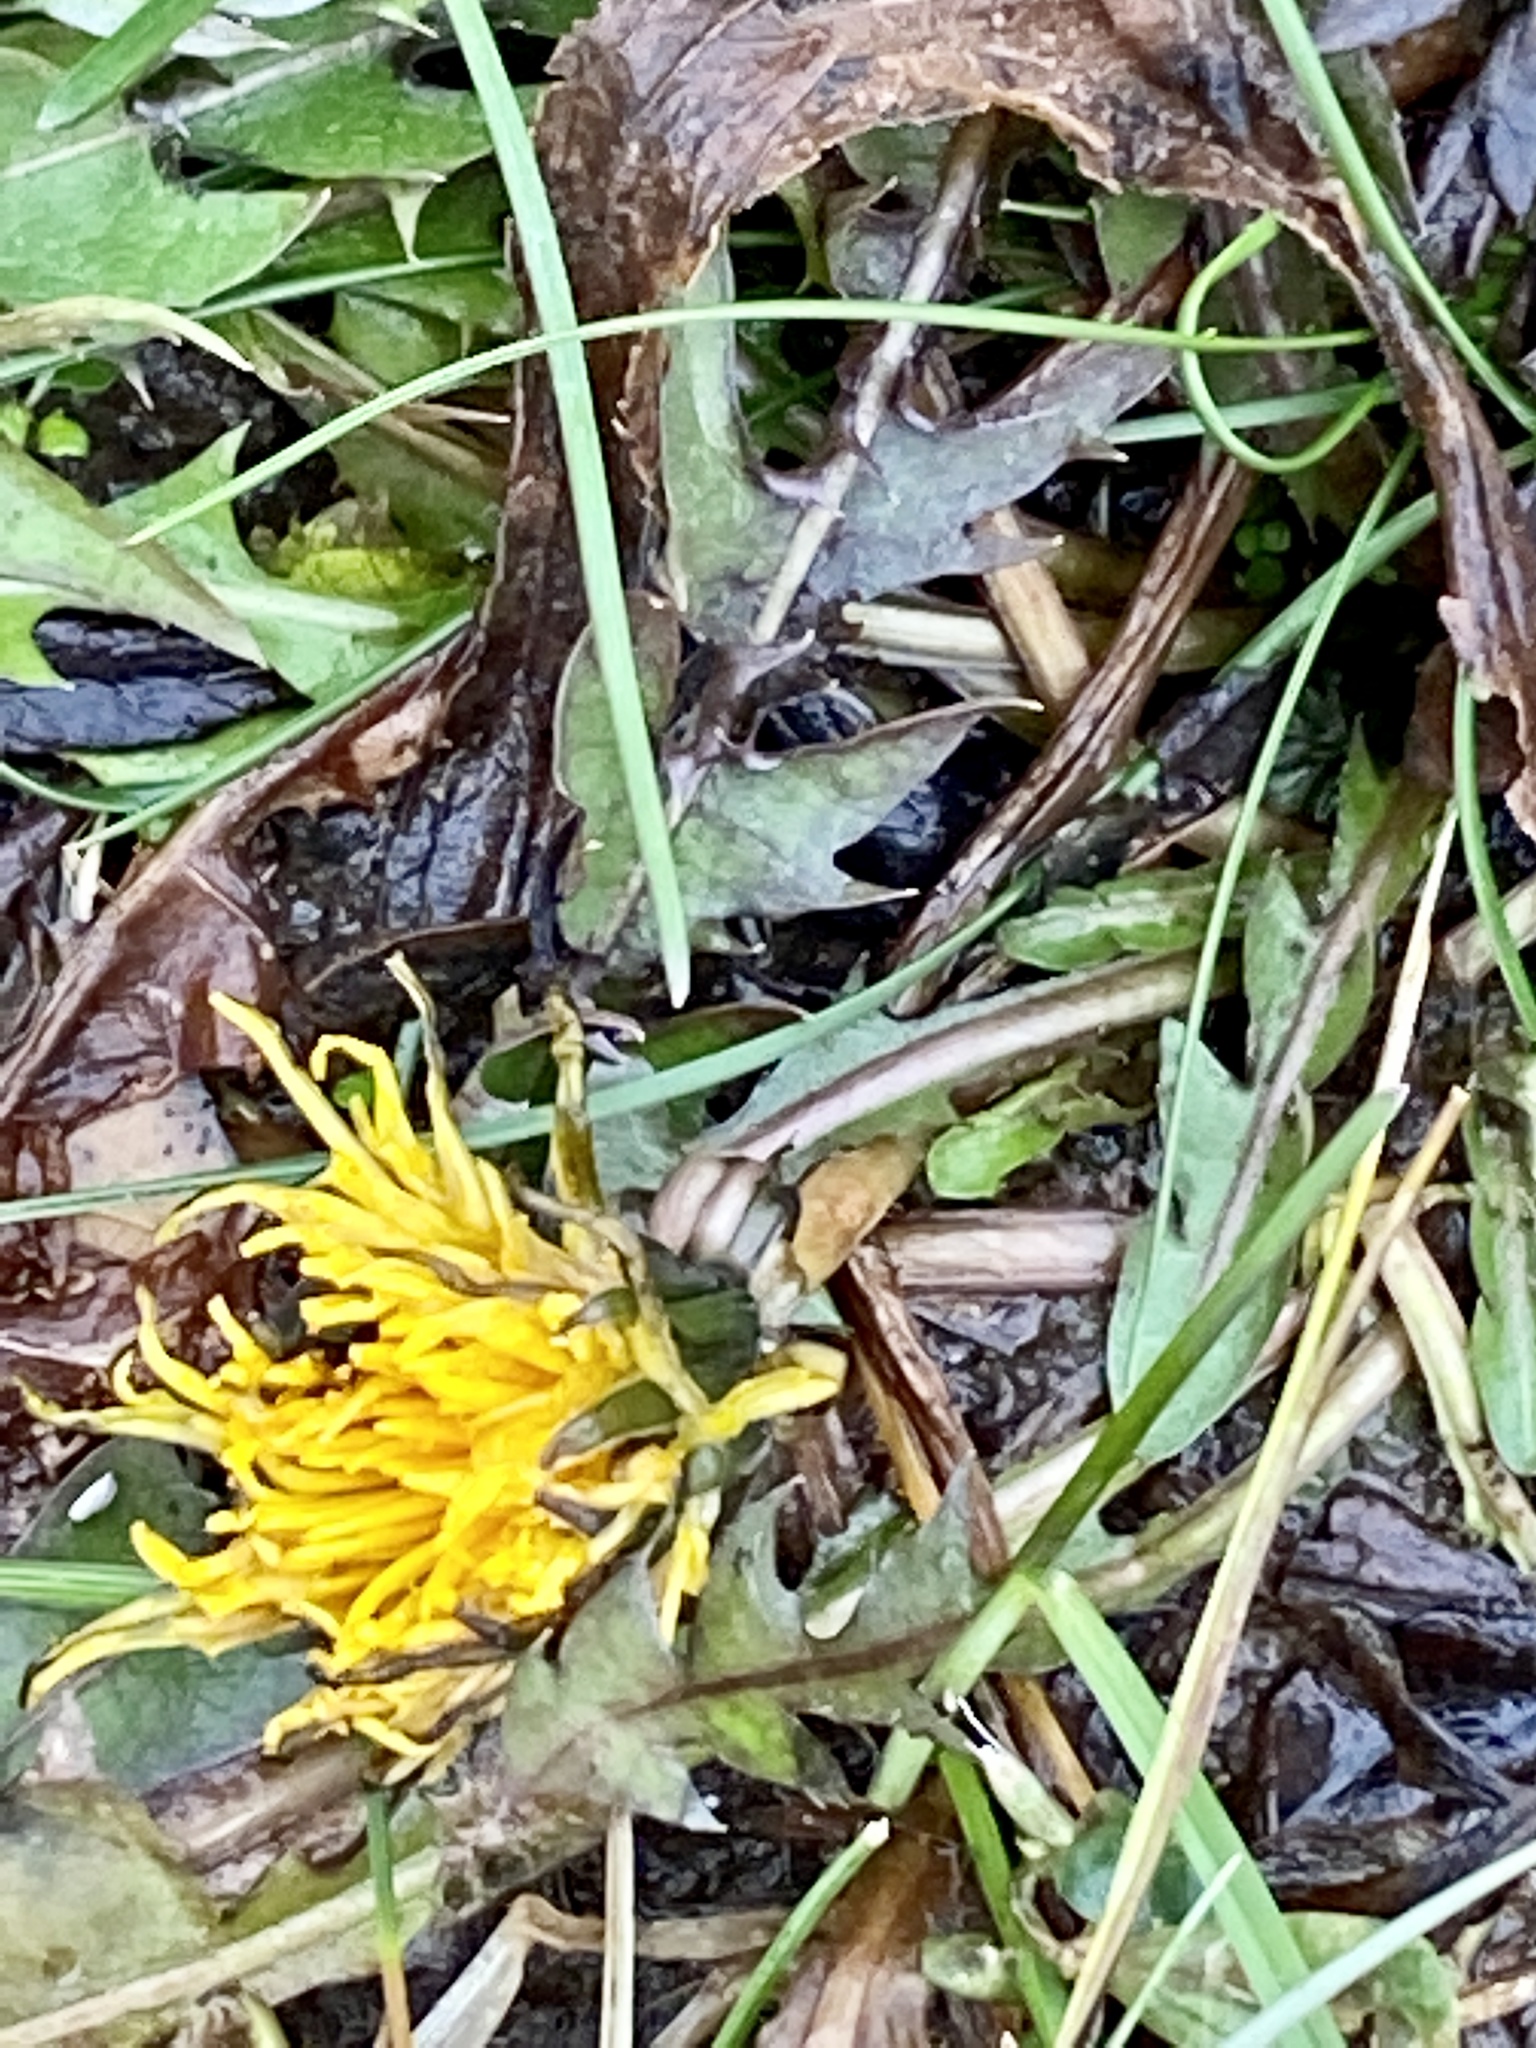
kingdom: Plantae
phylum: Tracheophyta
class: Magnoliopsida
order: Asterales
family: Asteraceae
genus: Taraxacum
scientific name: Taraxacum
